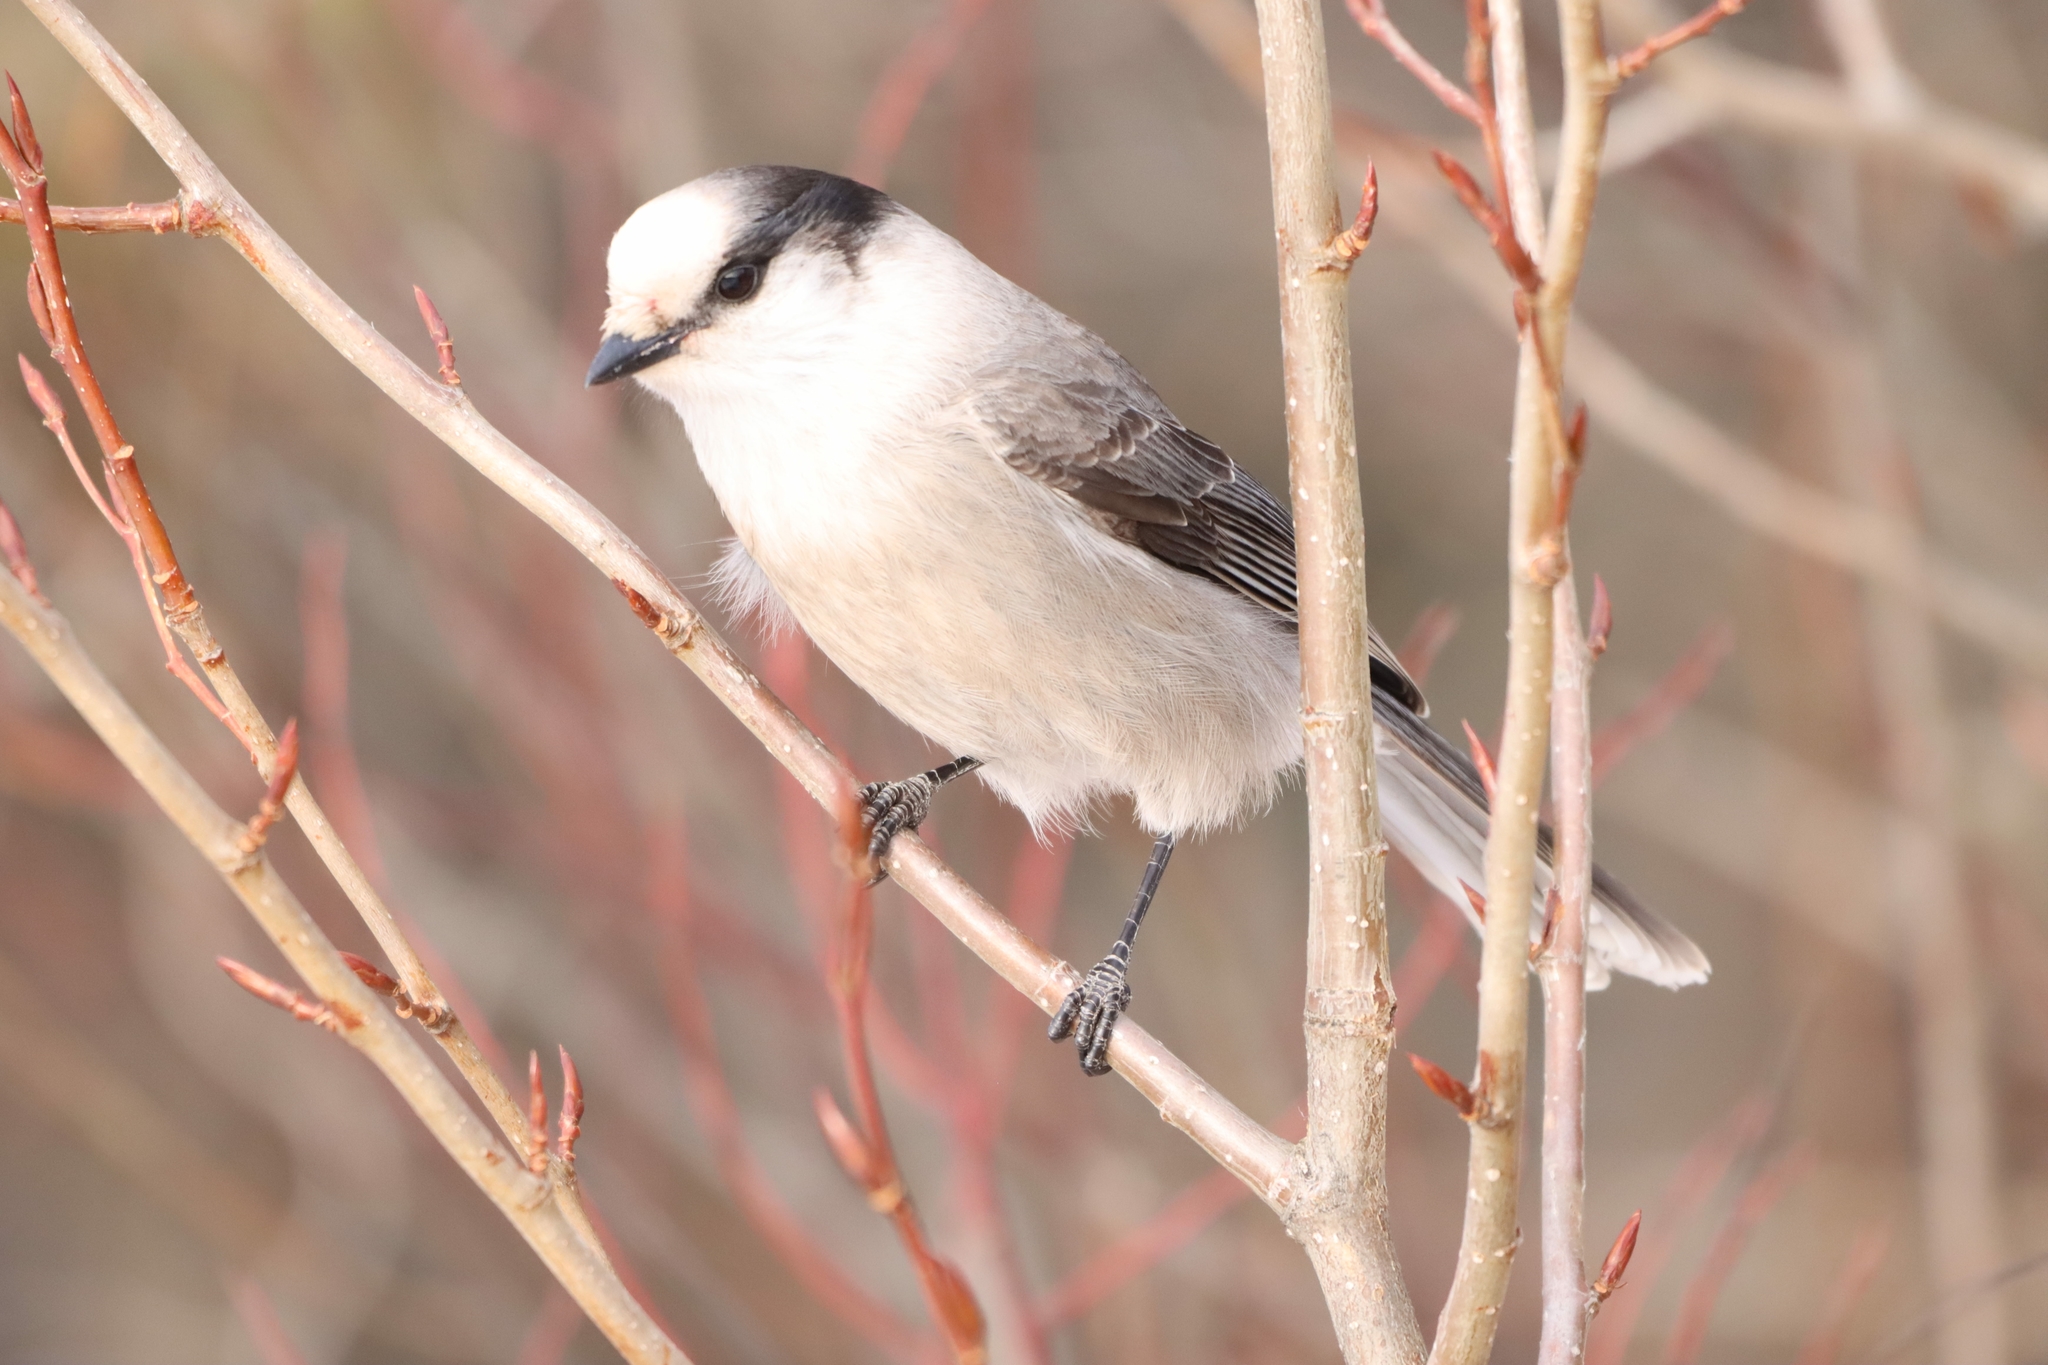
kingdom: Animalia
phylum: Chordata
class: Aves
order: Passeriformes
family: Corvidae
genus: Perisoreus
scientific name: Perisoreus canadensis
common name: Gray jay
